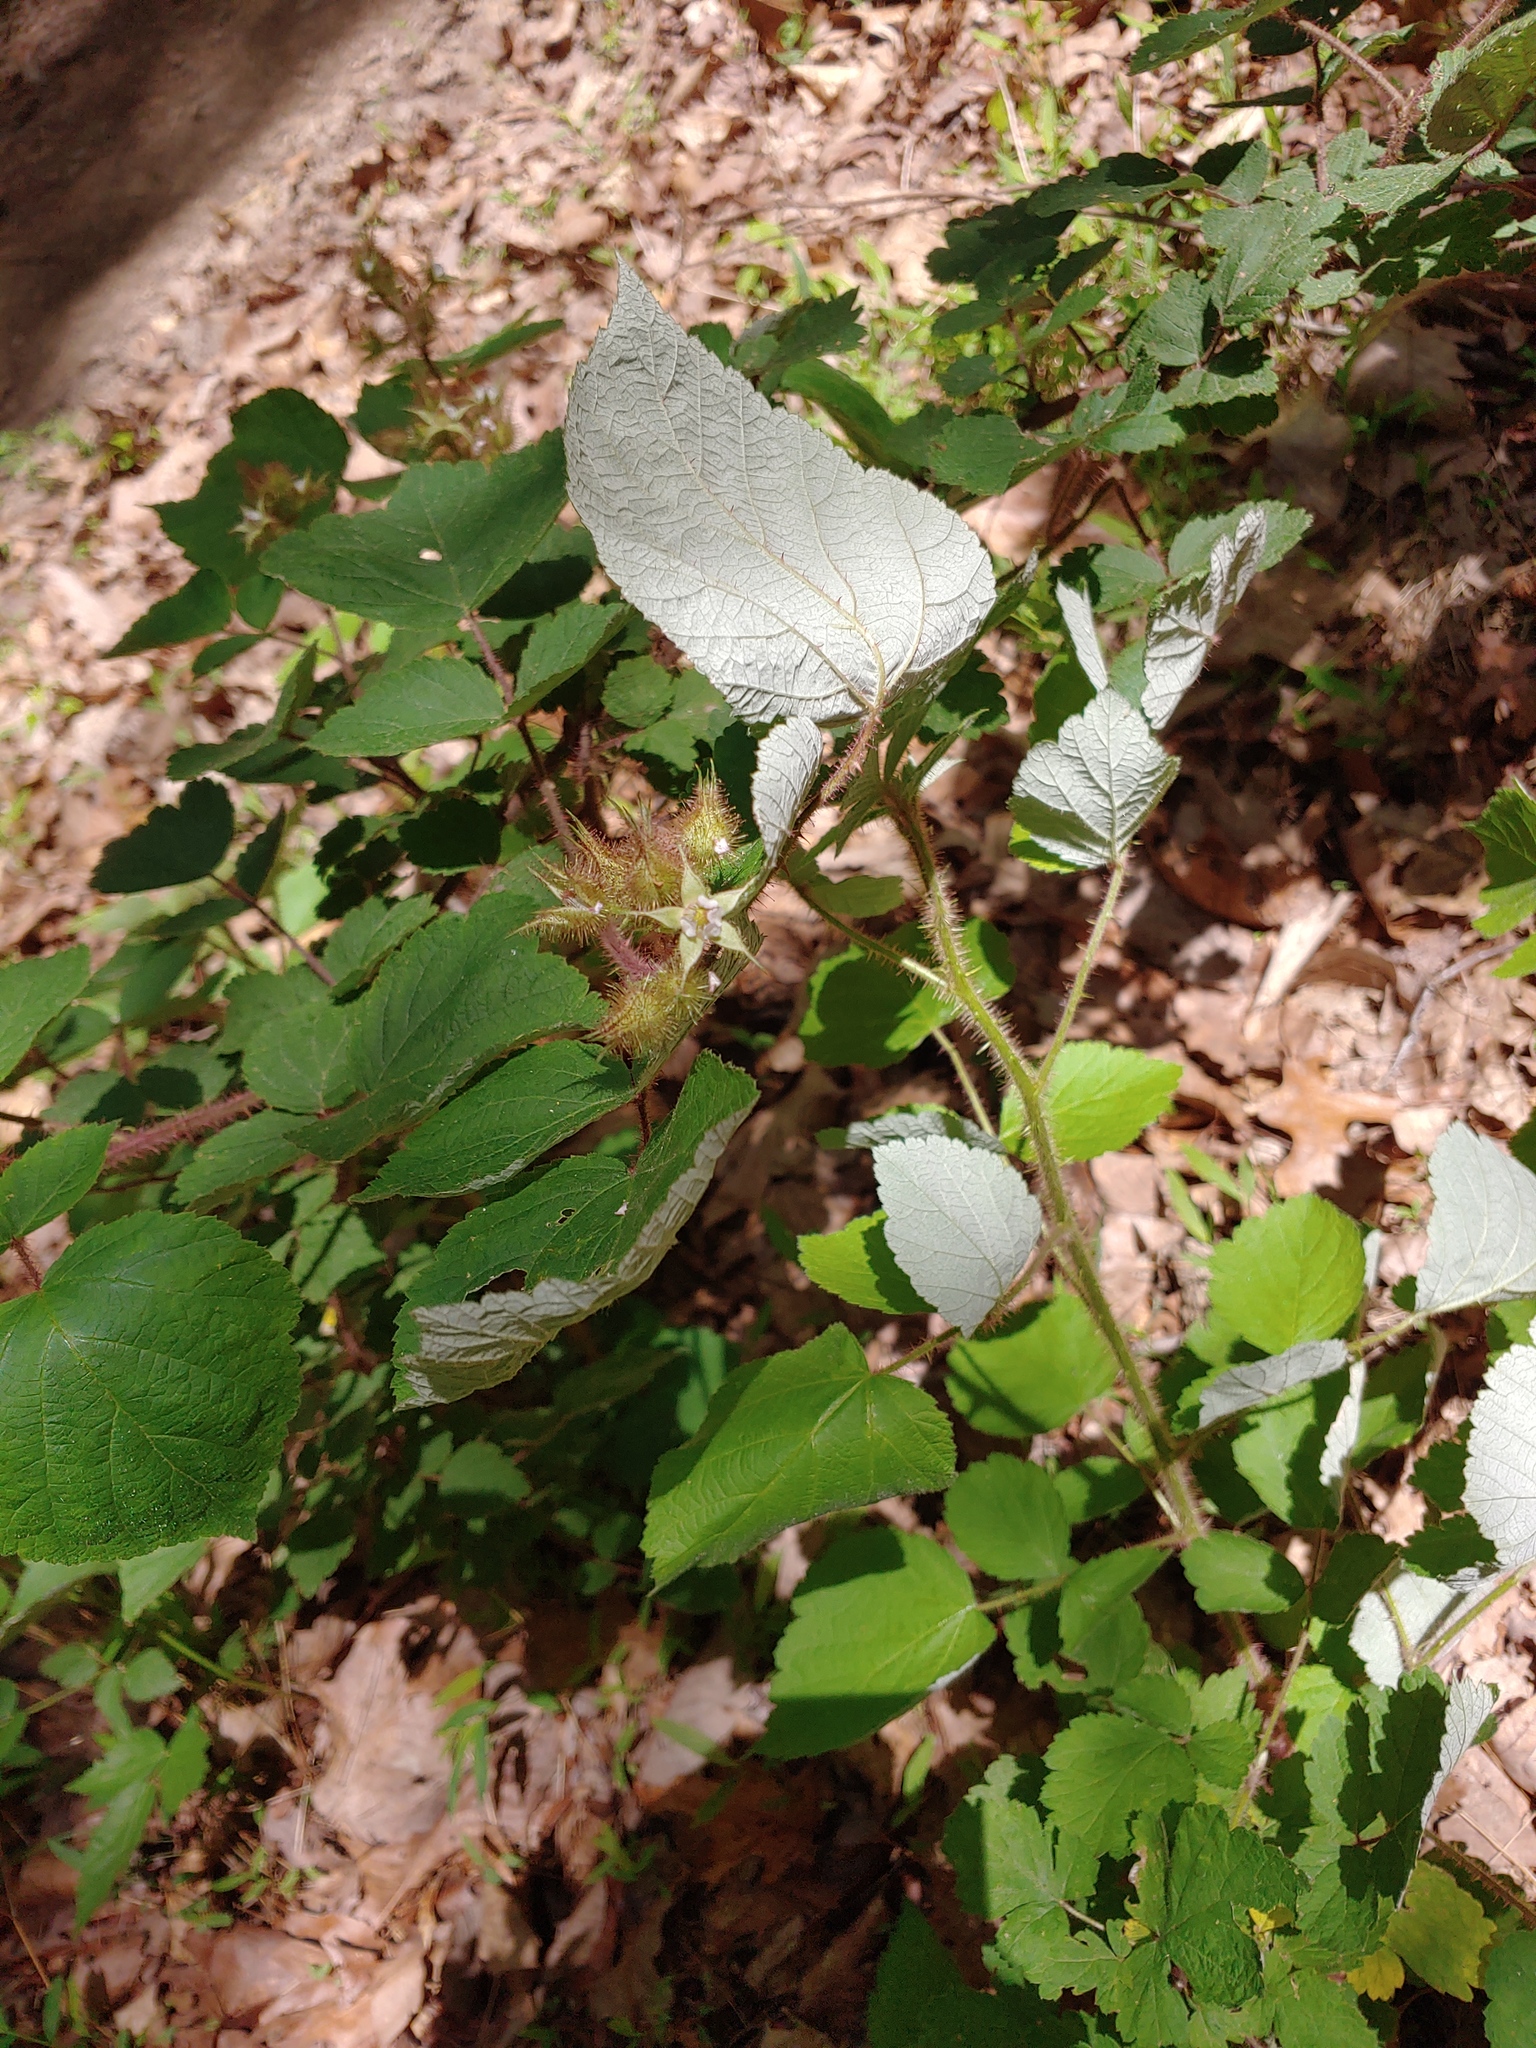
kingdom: Plantae
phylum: Tracheophyta
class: Magnoliopsida
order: Rosales
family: Rosaceae
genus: Rubus
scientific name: Rubus phoenicolasius
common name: Japanese wineberry
